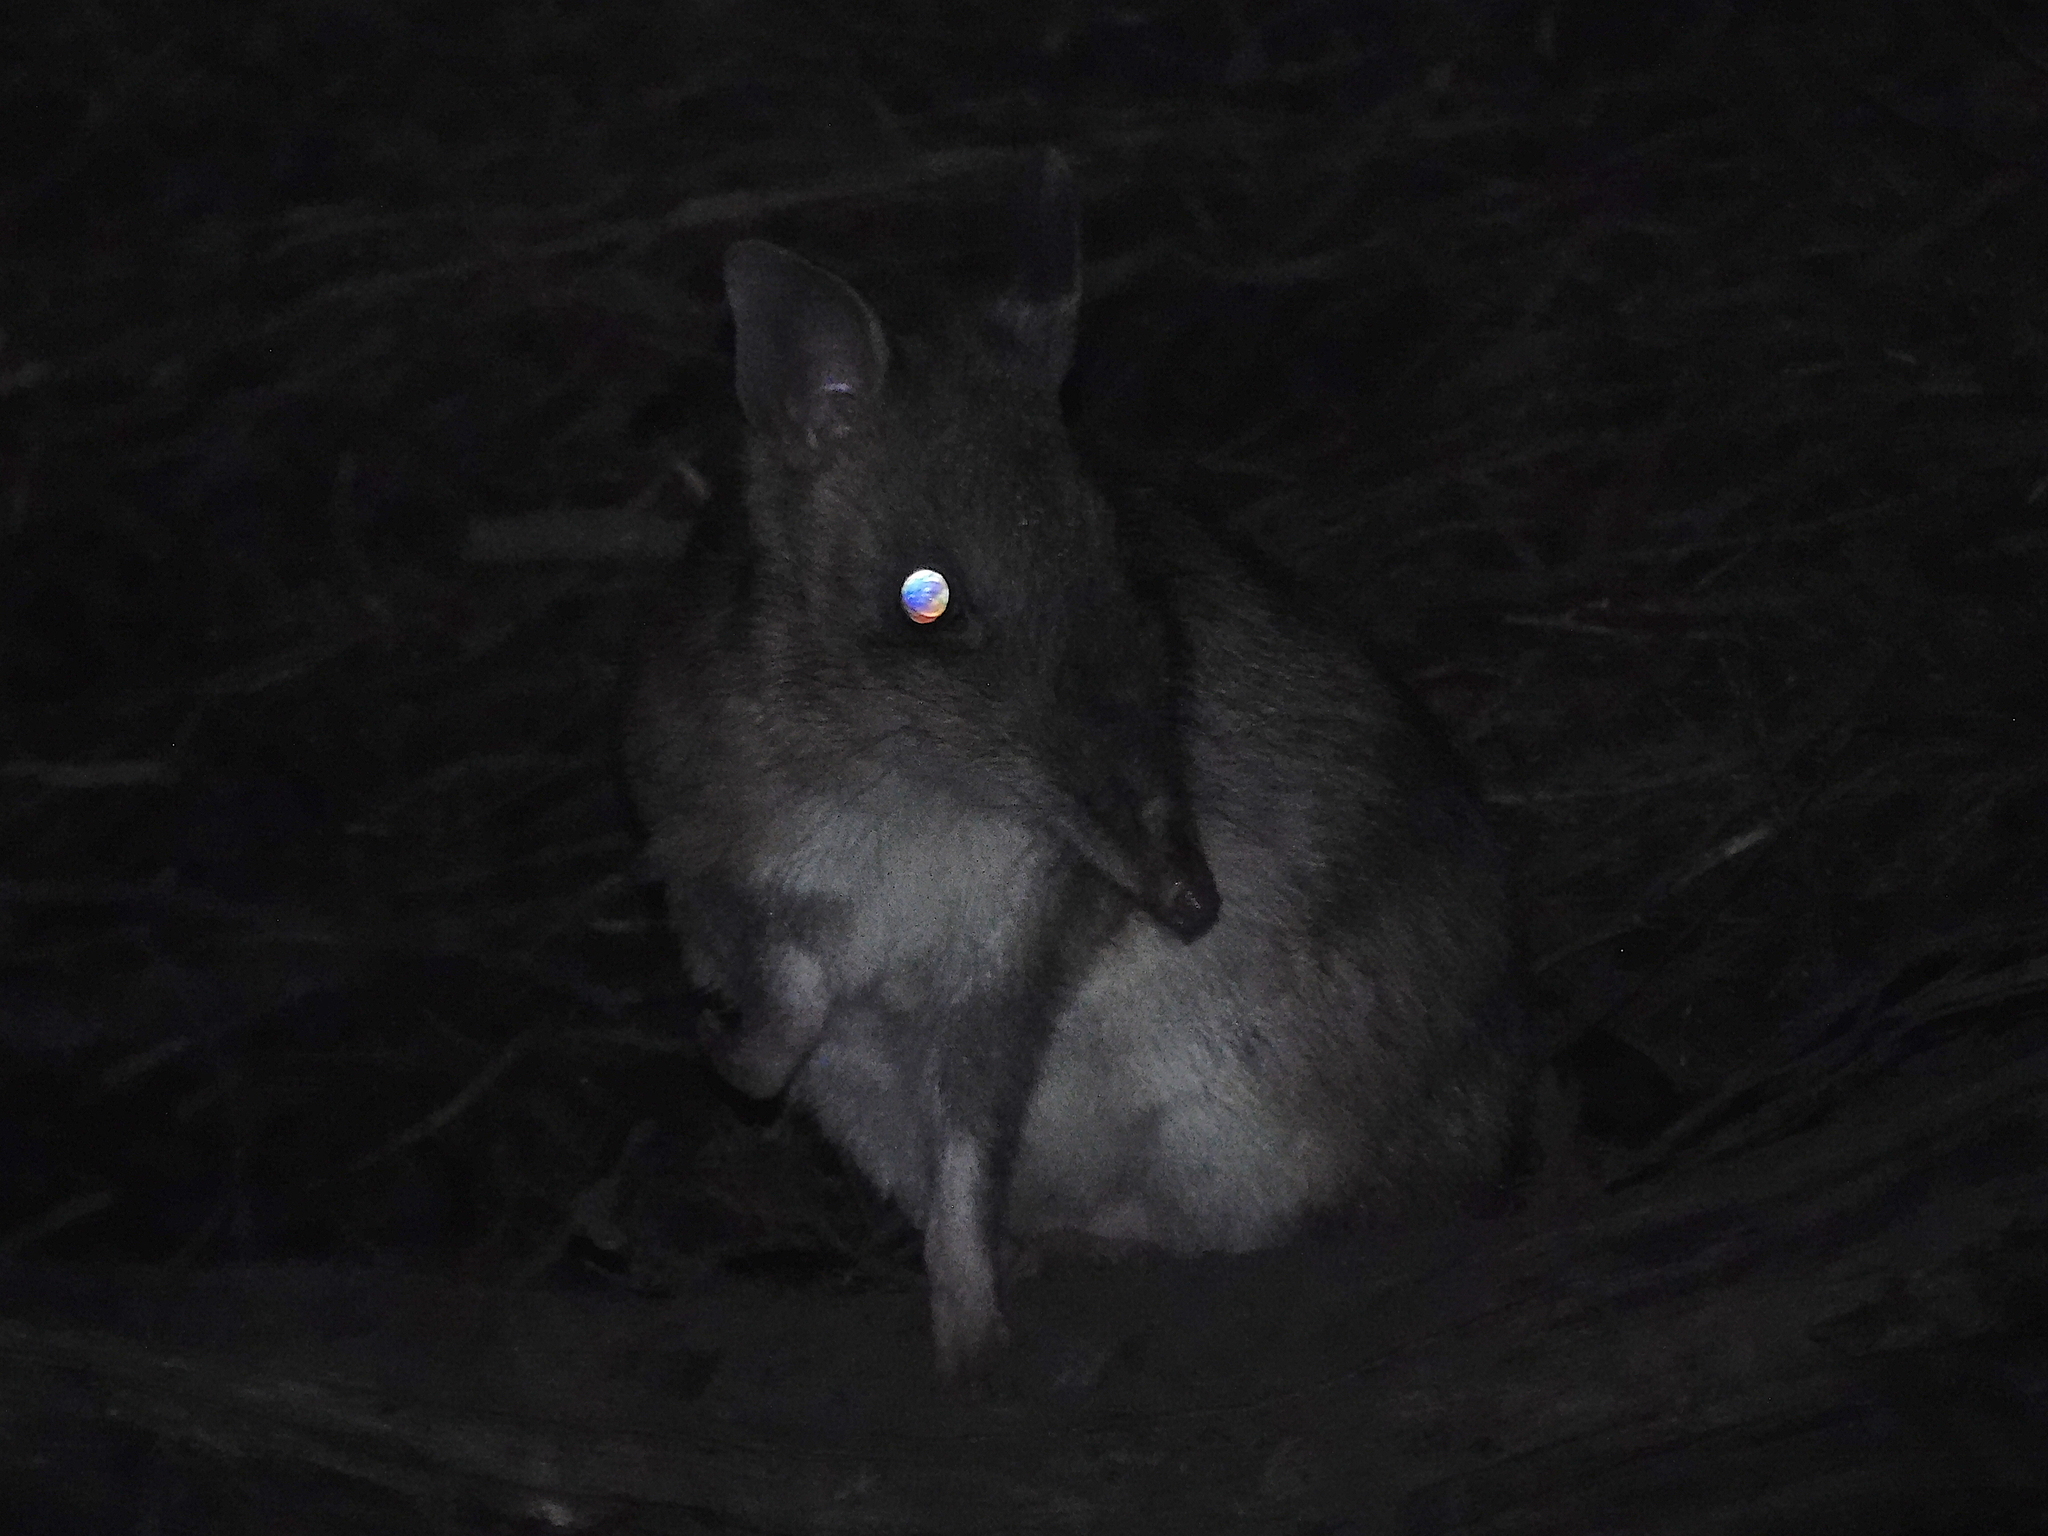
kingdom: Animalia
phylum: Chordata
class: Mammalia
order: Peramelemorphia
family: Peramelidae
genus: Perameles
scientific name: Perameles gunnii
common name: Eastern barred bandicoot
